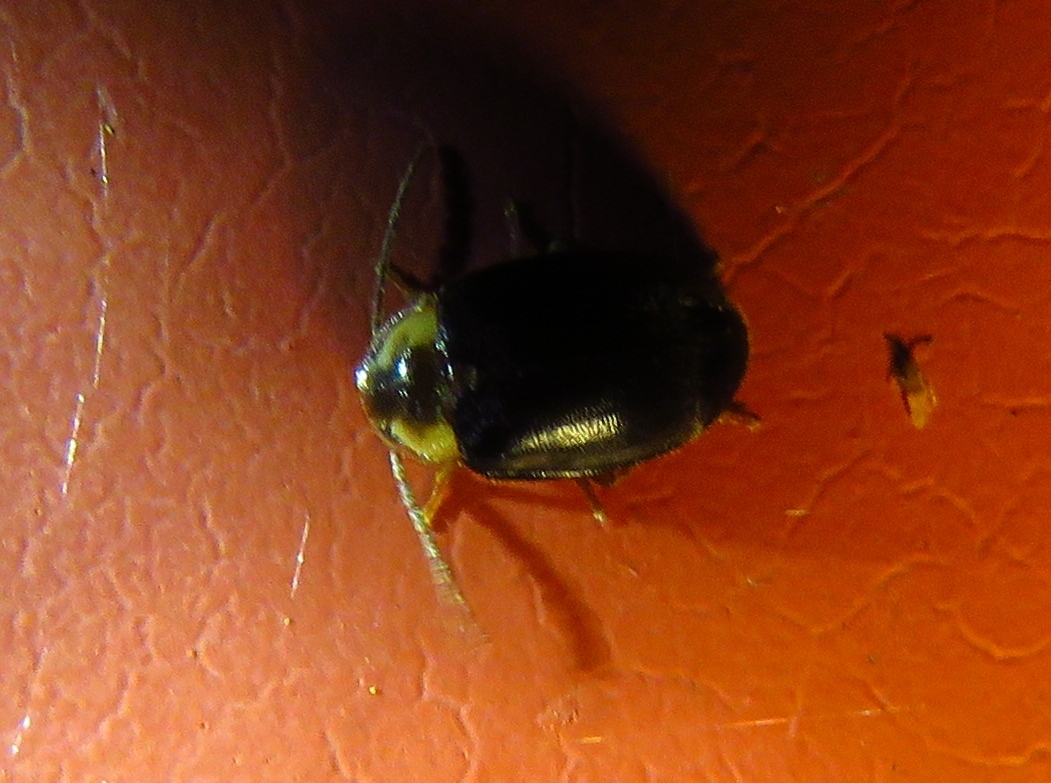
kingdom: Animalia
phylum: Arthropoda
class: Insecta
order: Coleoptera
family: Scirtidae
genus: Sacodes
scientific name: Sacodes pulchella
